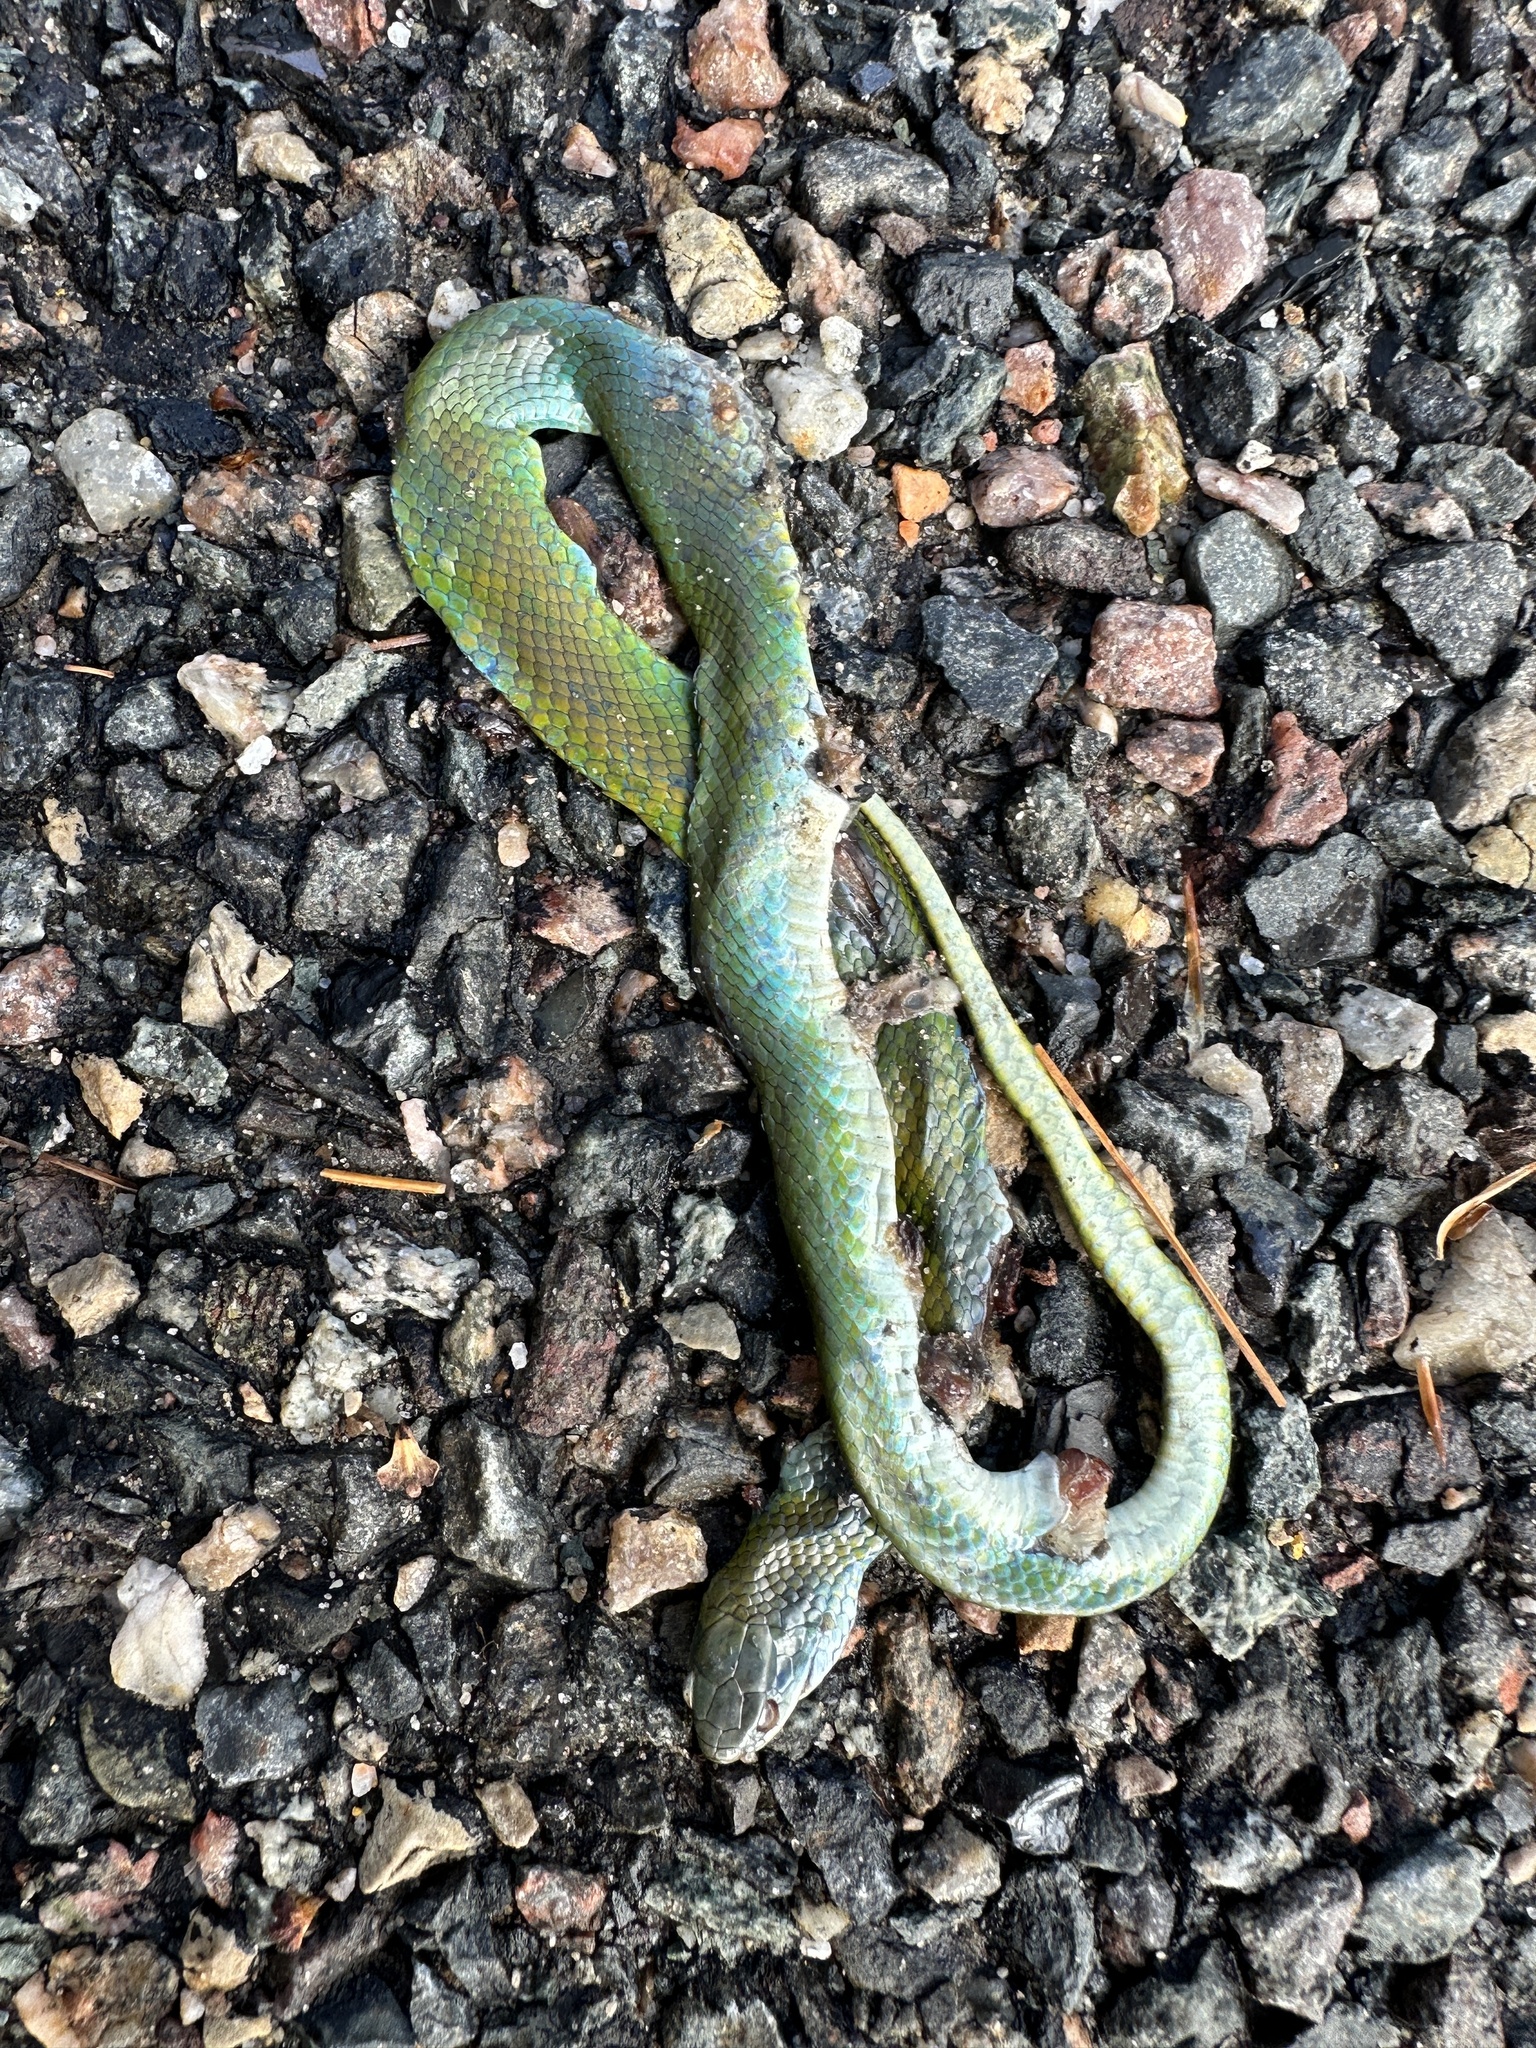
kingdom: Animalia
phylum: Chordata
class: Squamata
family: Colubridae
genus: Opheodrys
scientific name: Opheodrys vernalis
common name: Smooth green snake
